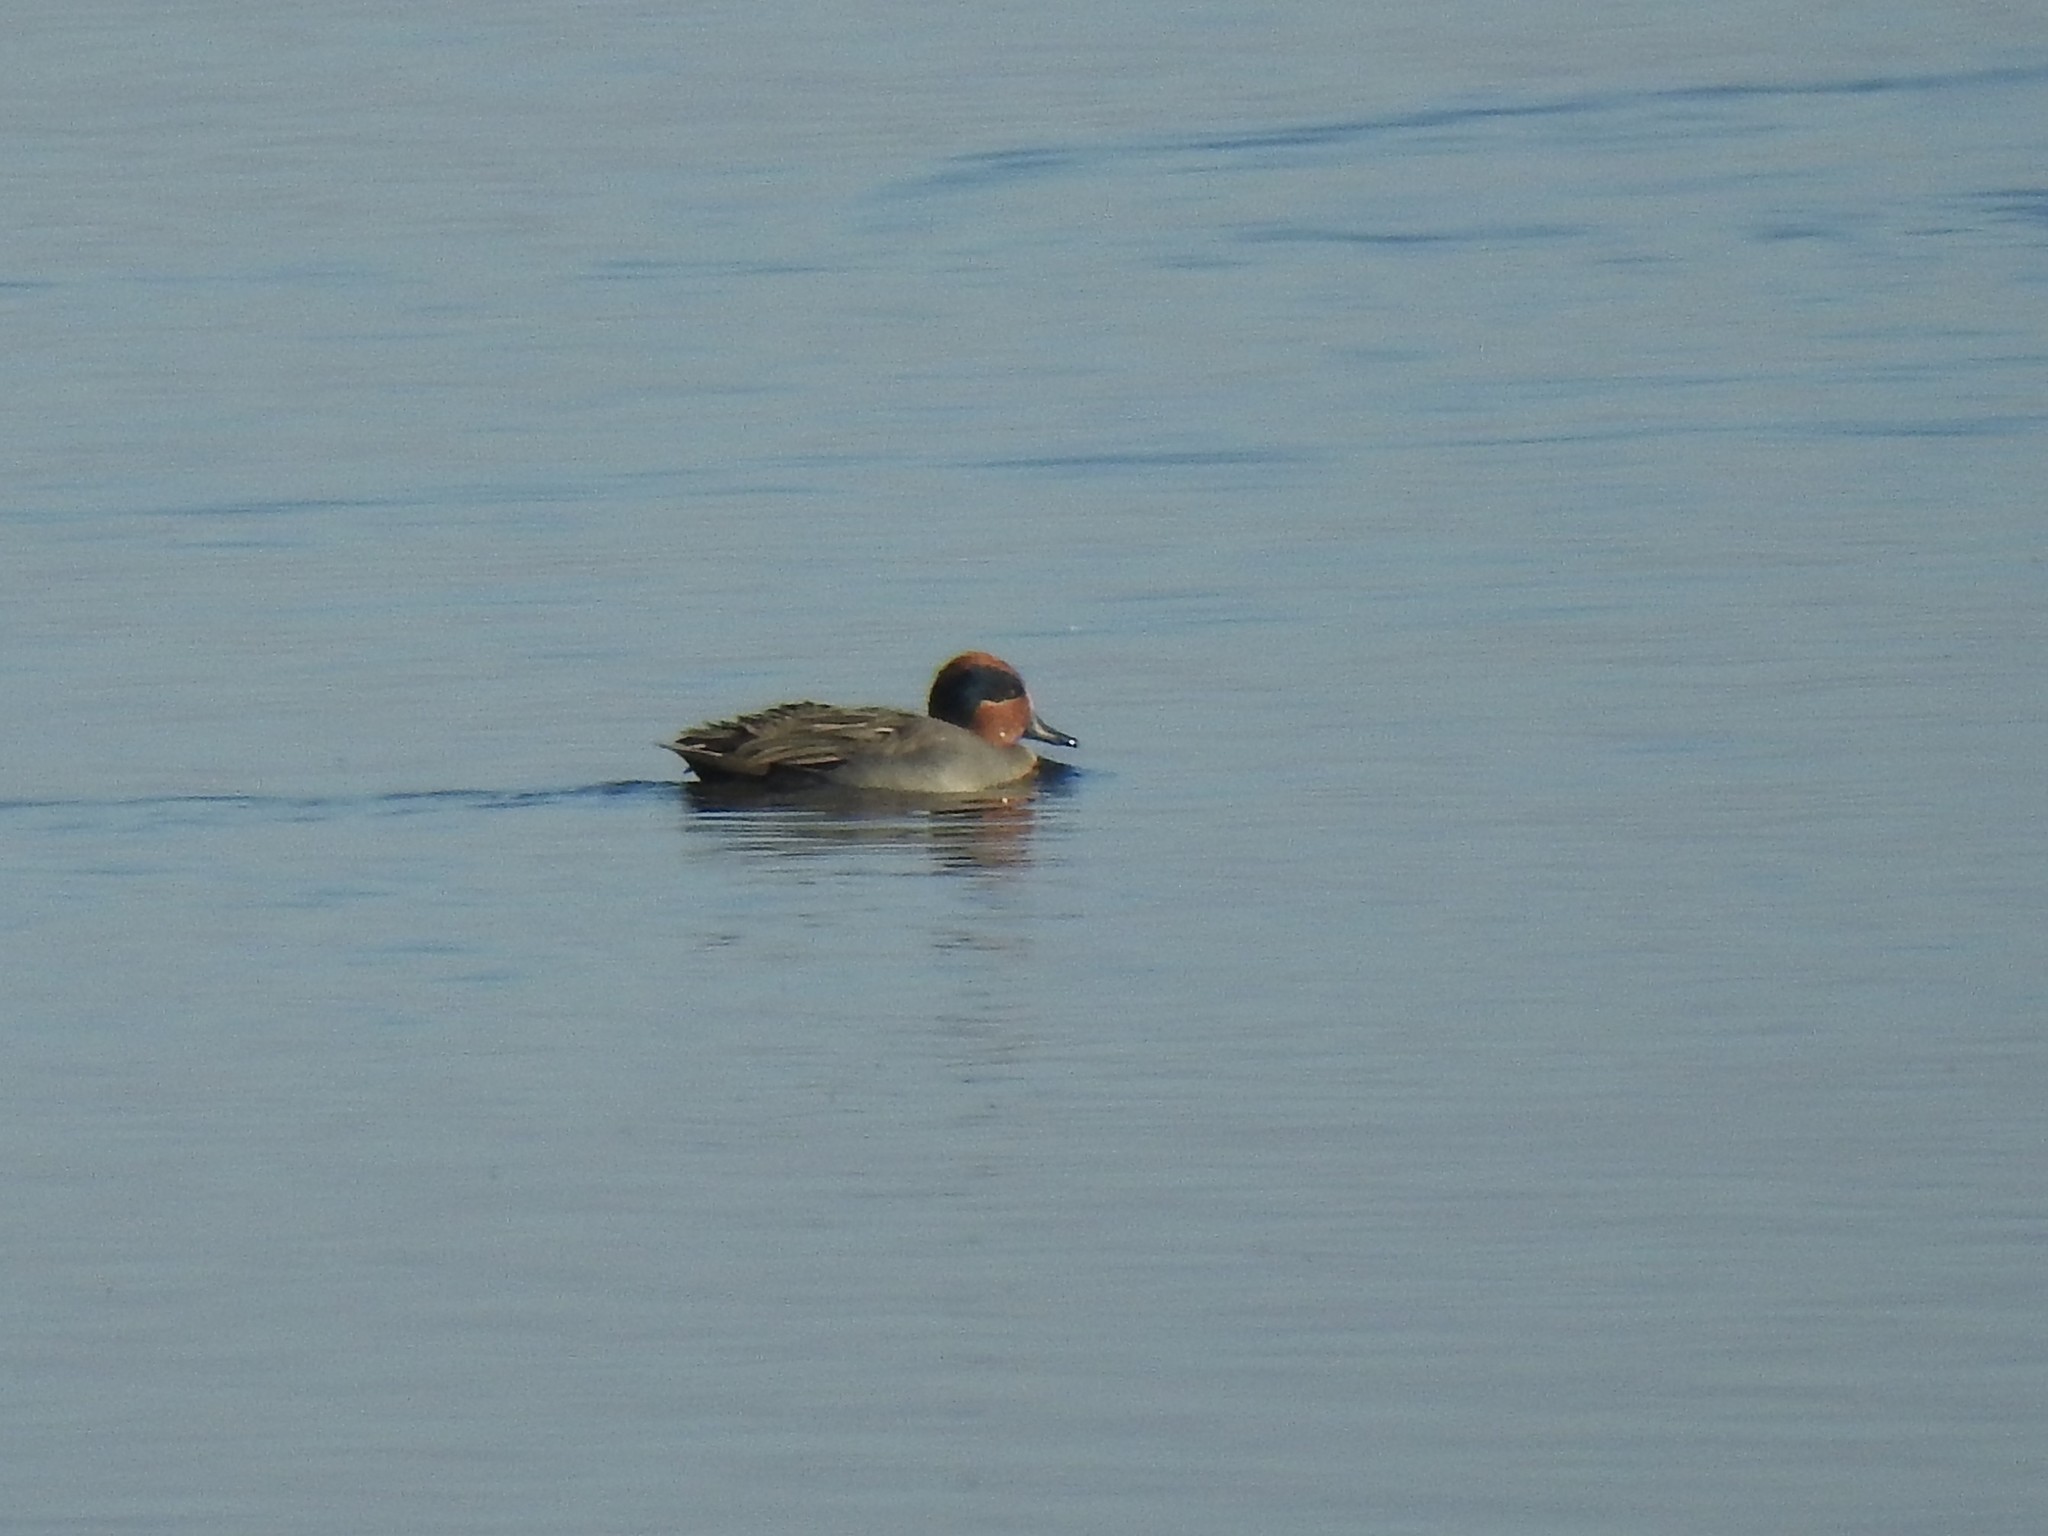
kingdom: Animalia
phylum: Chordata
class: Aves
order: Anseriformes
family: Anatidae
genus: Anas
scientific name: Anas crecca
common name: Eurasian teal
